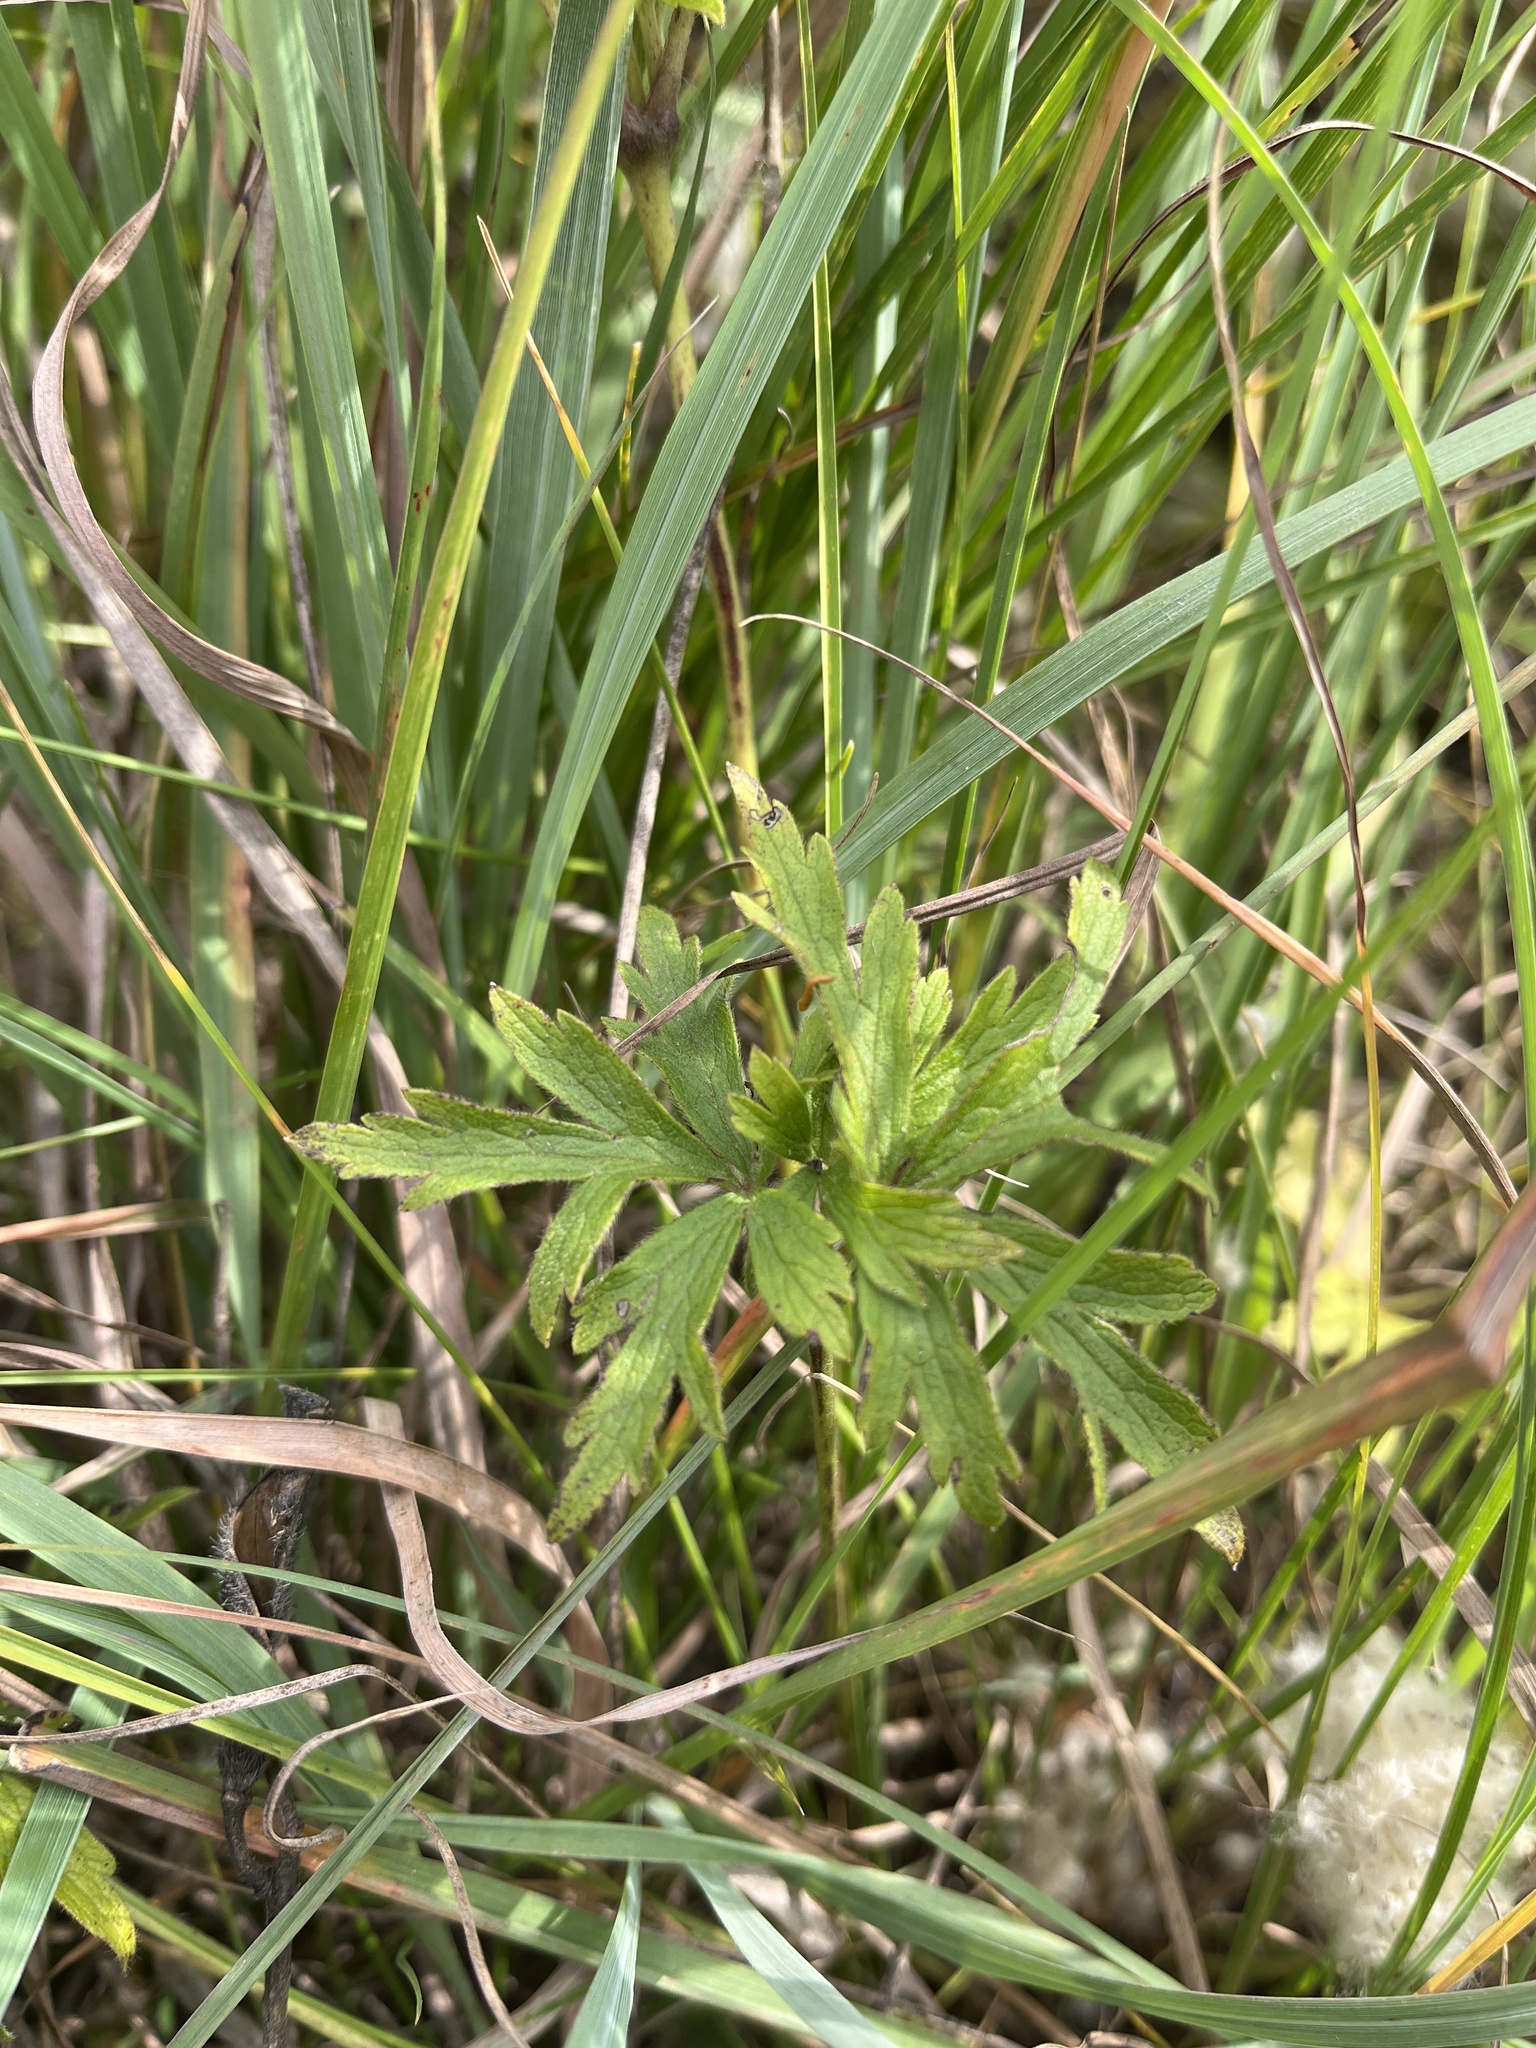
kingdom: Plantae
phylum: Tracheophyta
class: Magnoliopsida
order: Ranunculales
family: Ranunculaceae
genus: Anemone
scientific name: Anemone cylindrica
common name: Candle anemone
